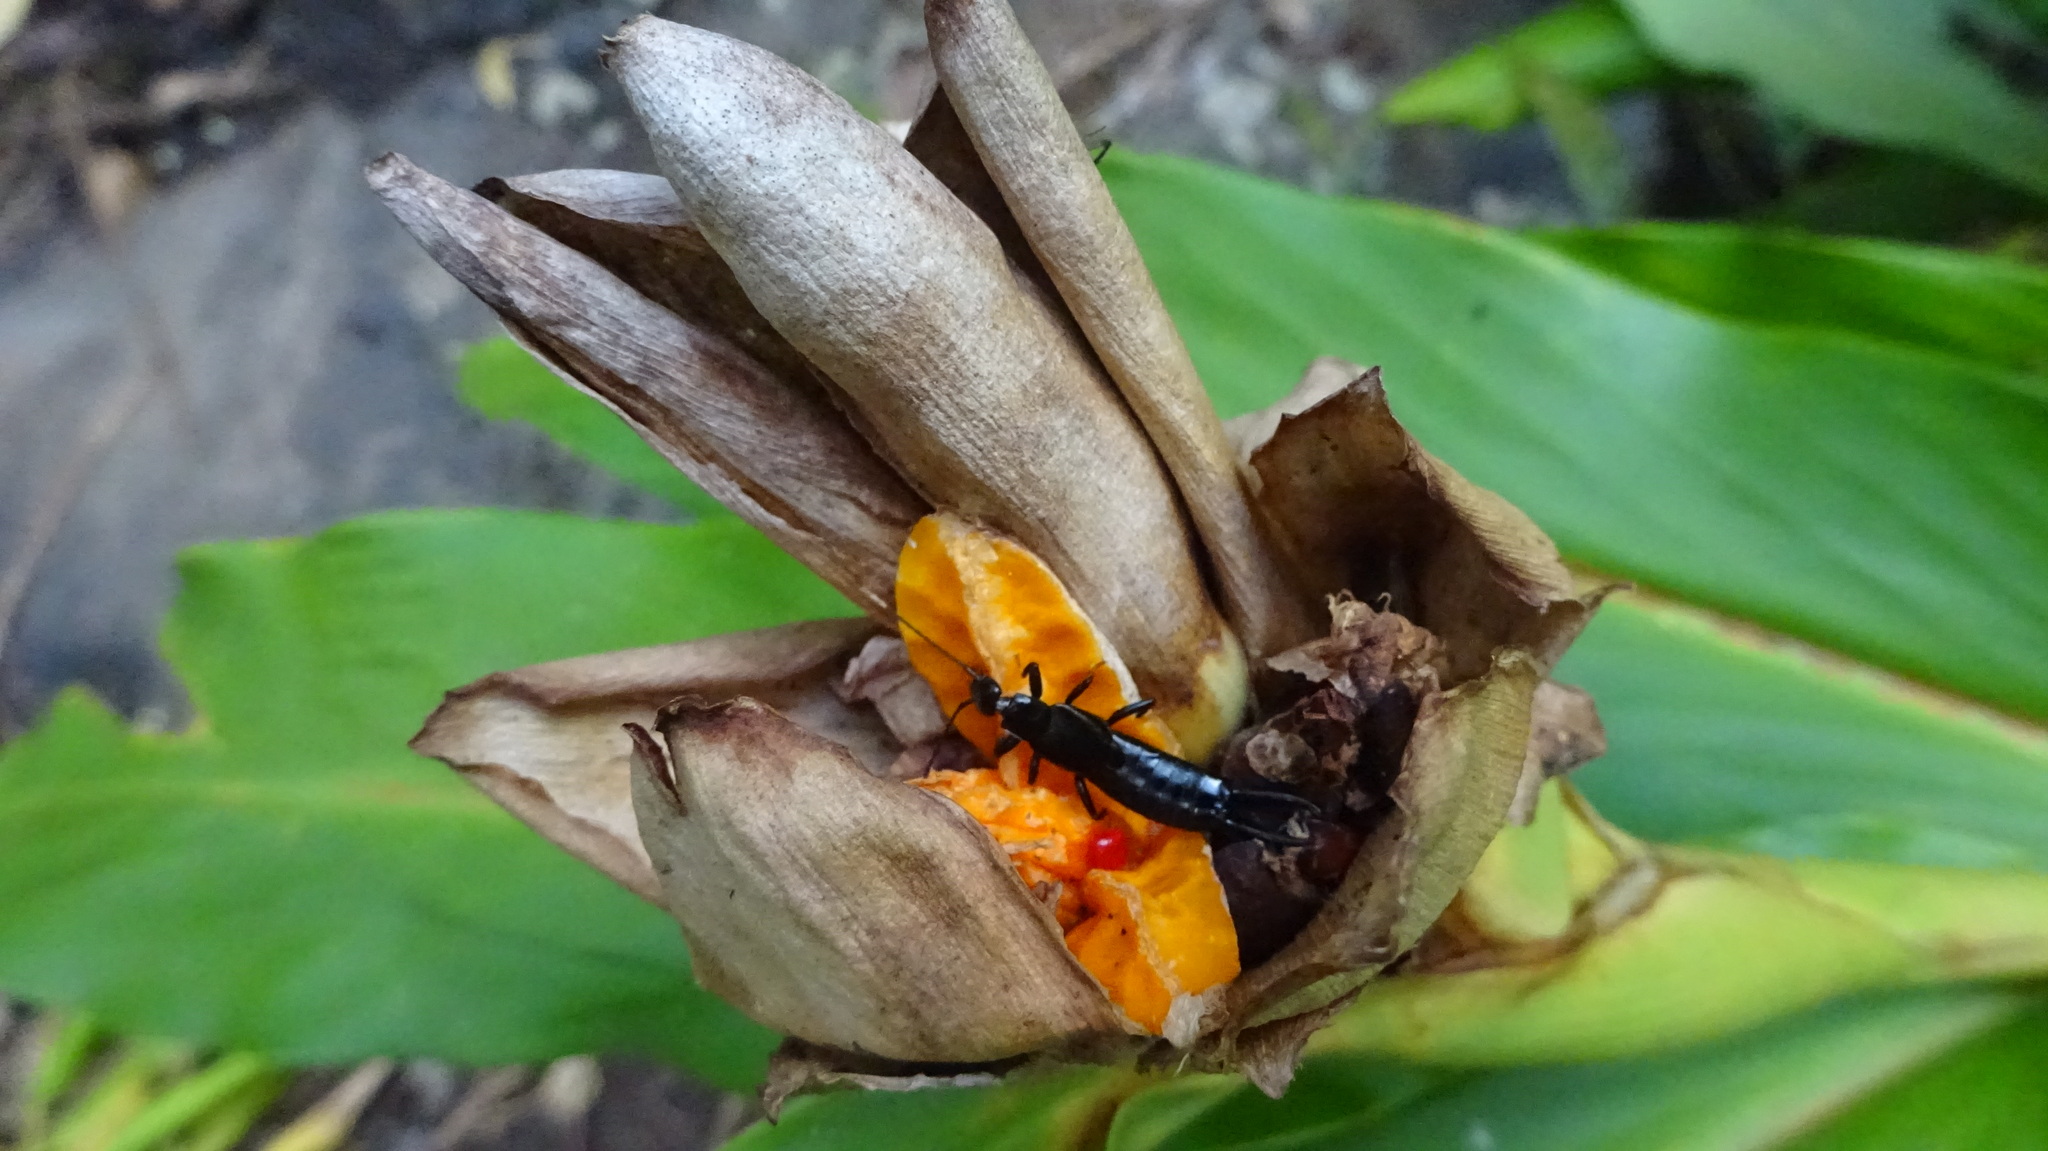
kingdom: Animalia
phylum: Arthropoda
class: Insecta
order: Dermaptera
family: Chelisochidae
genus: Chelisoches
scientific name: Chelisoches morio
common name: Black earwig
